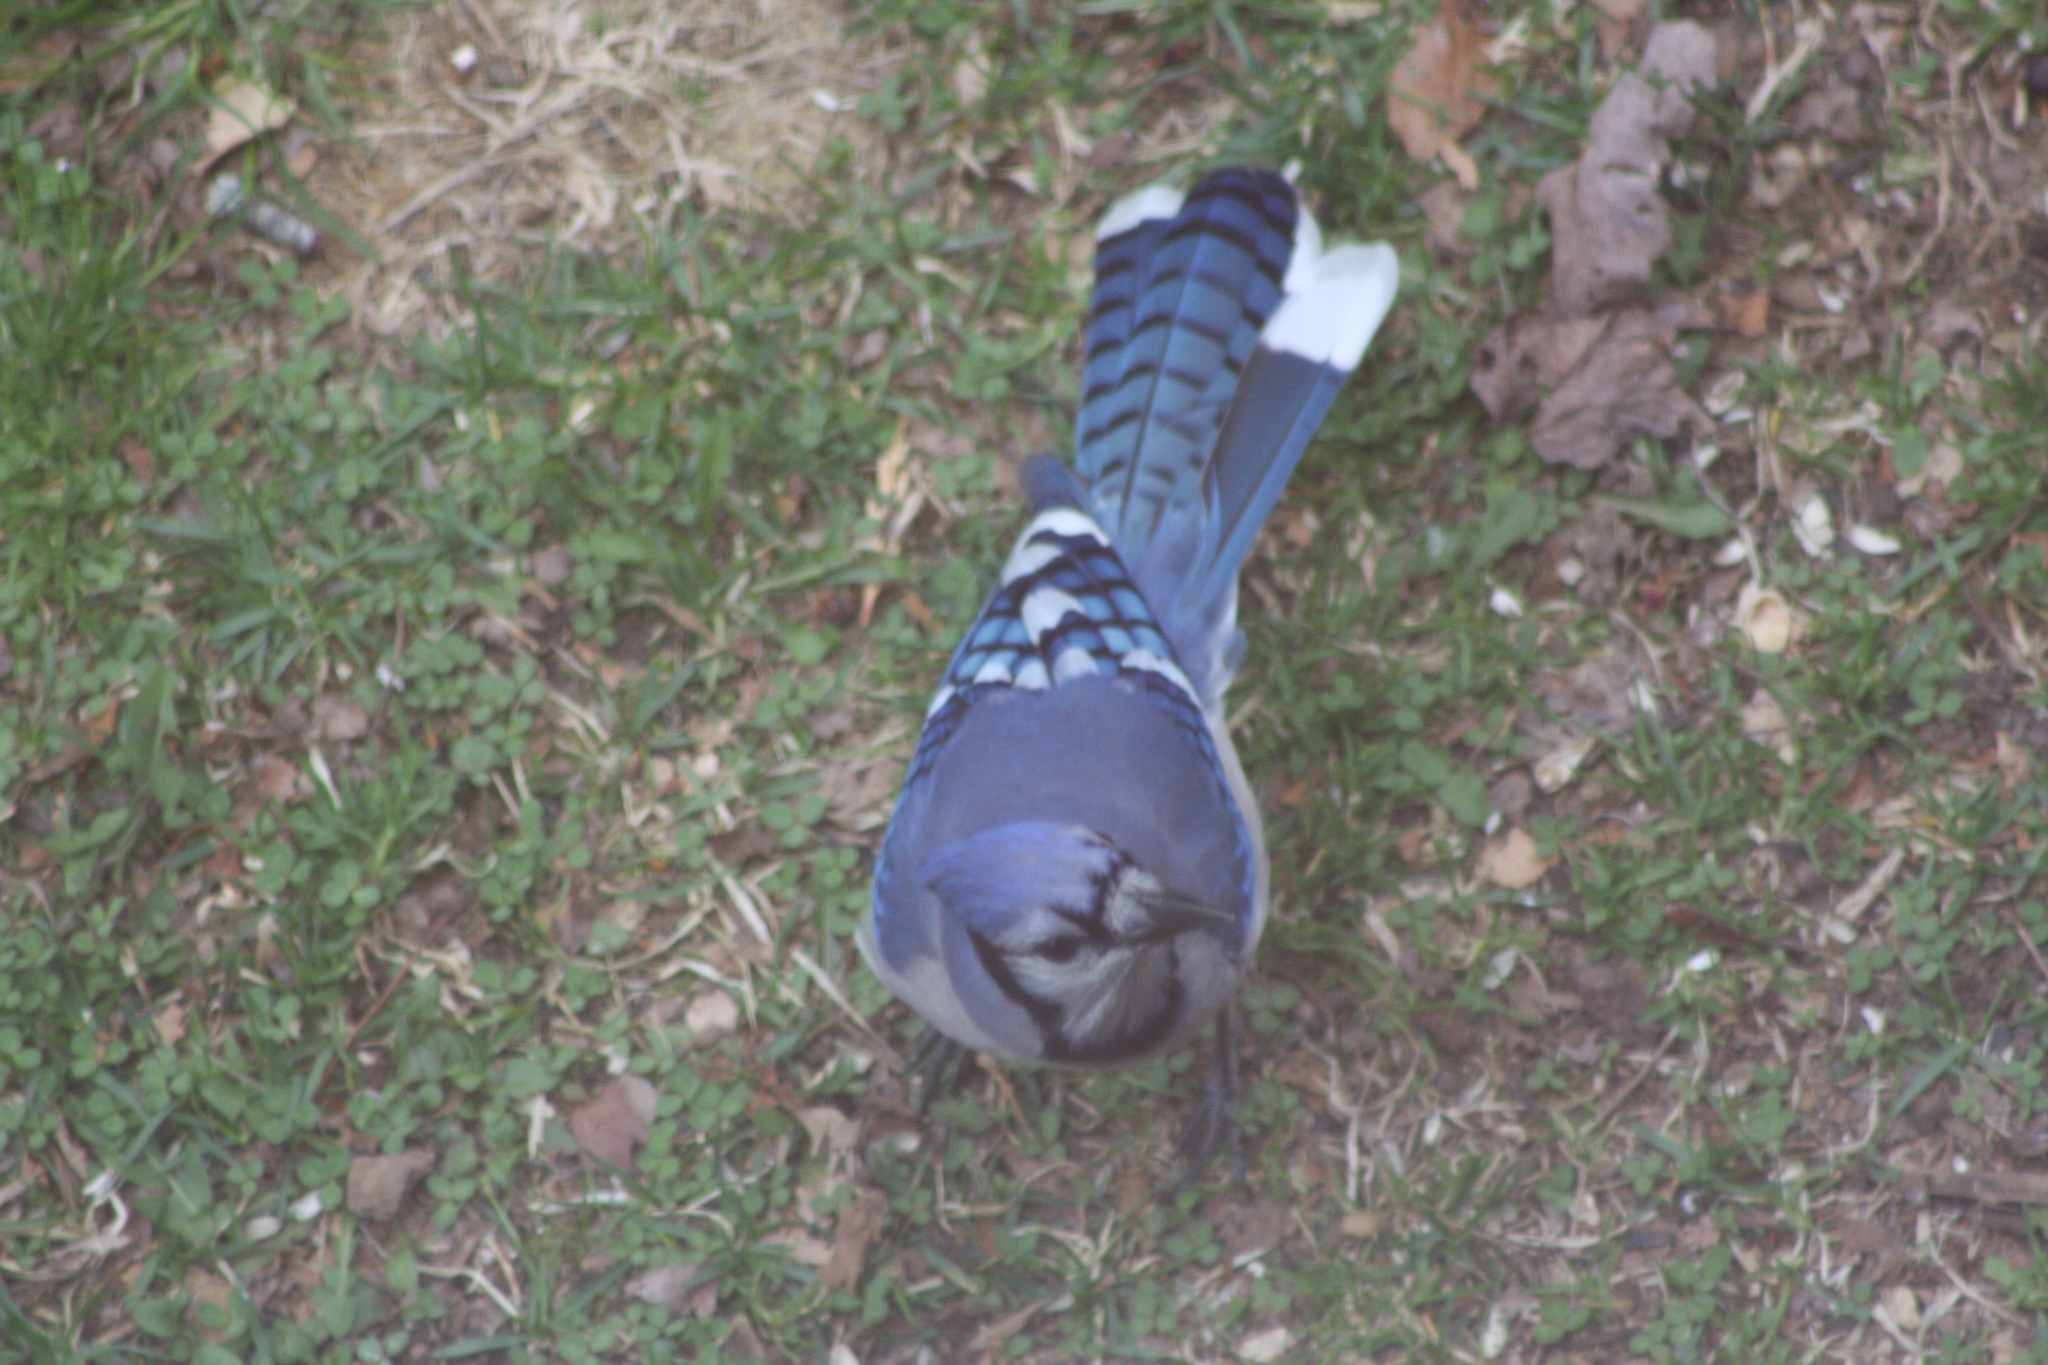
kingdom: Animalia
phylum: Chordata
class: Aves
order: Passeriformes
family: Corvidae
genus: Cyanocitta
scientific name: Cyanocitta cristata
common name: Blue jay
